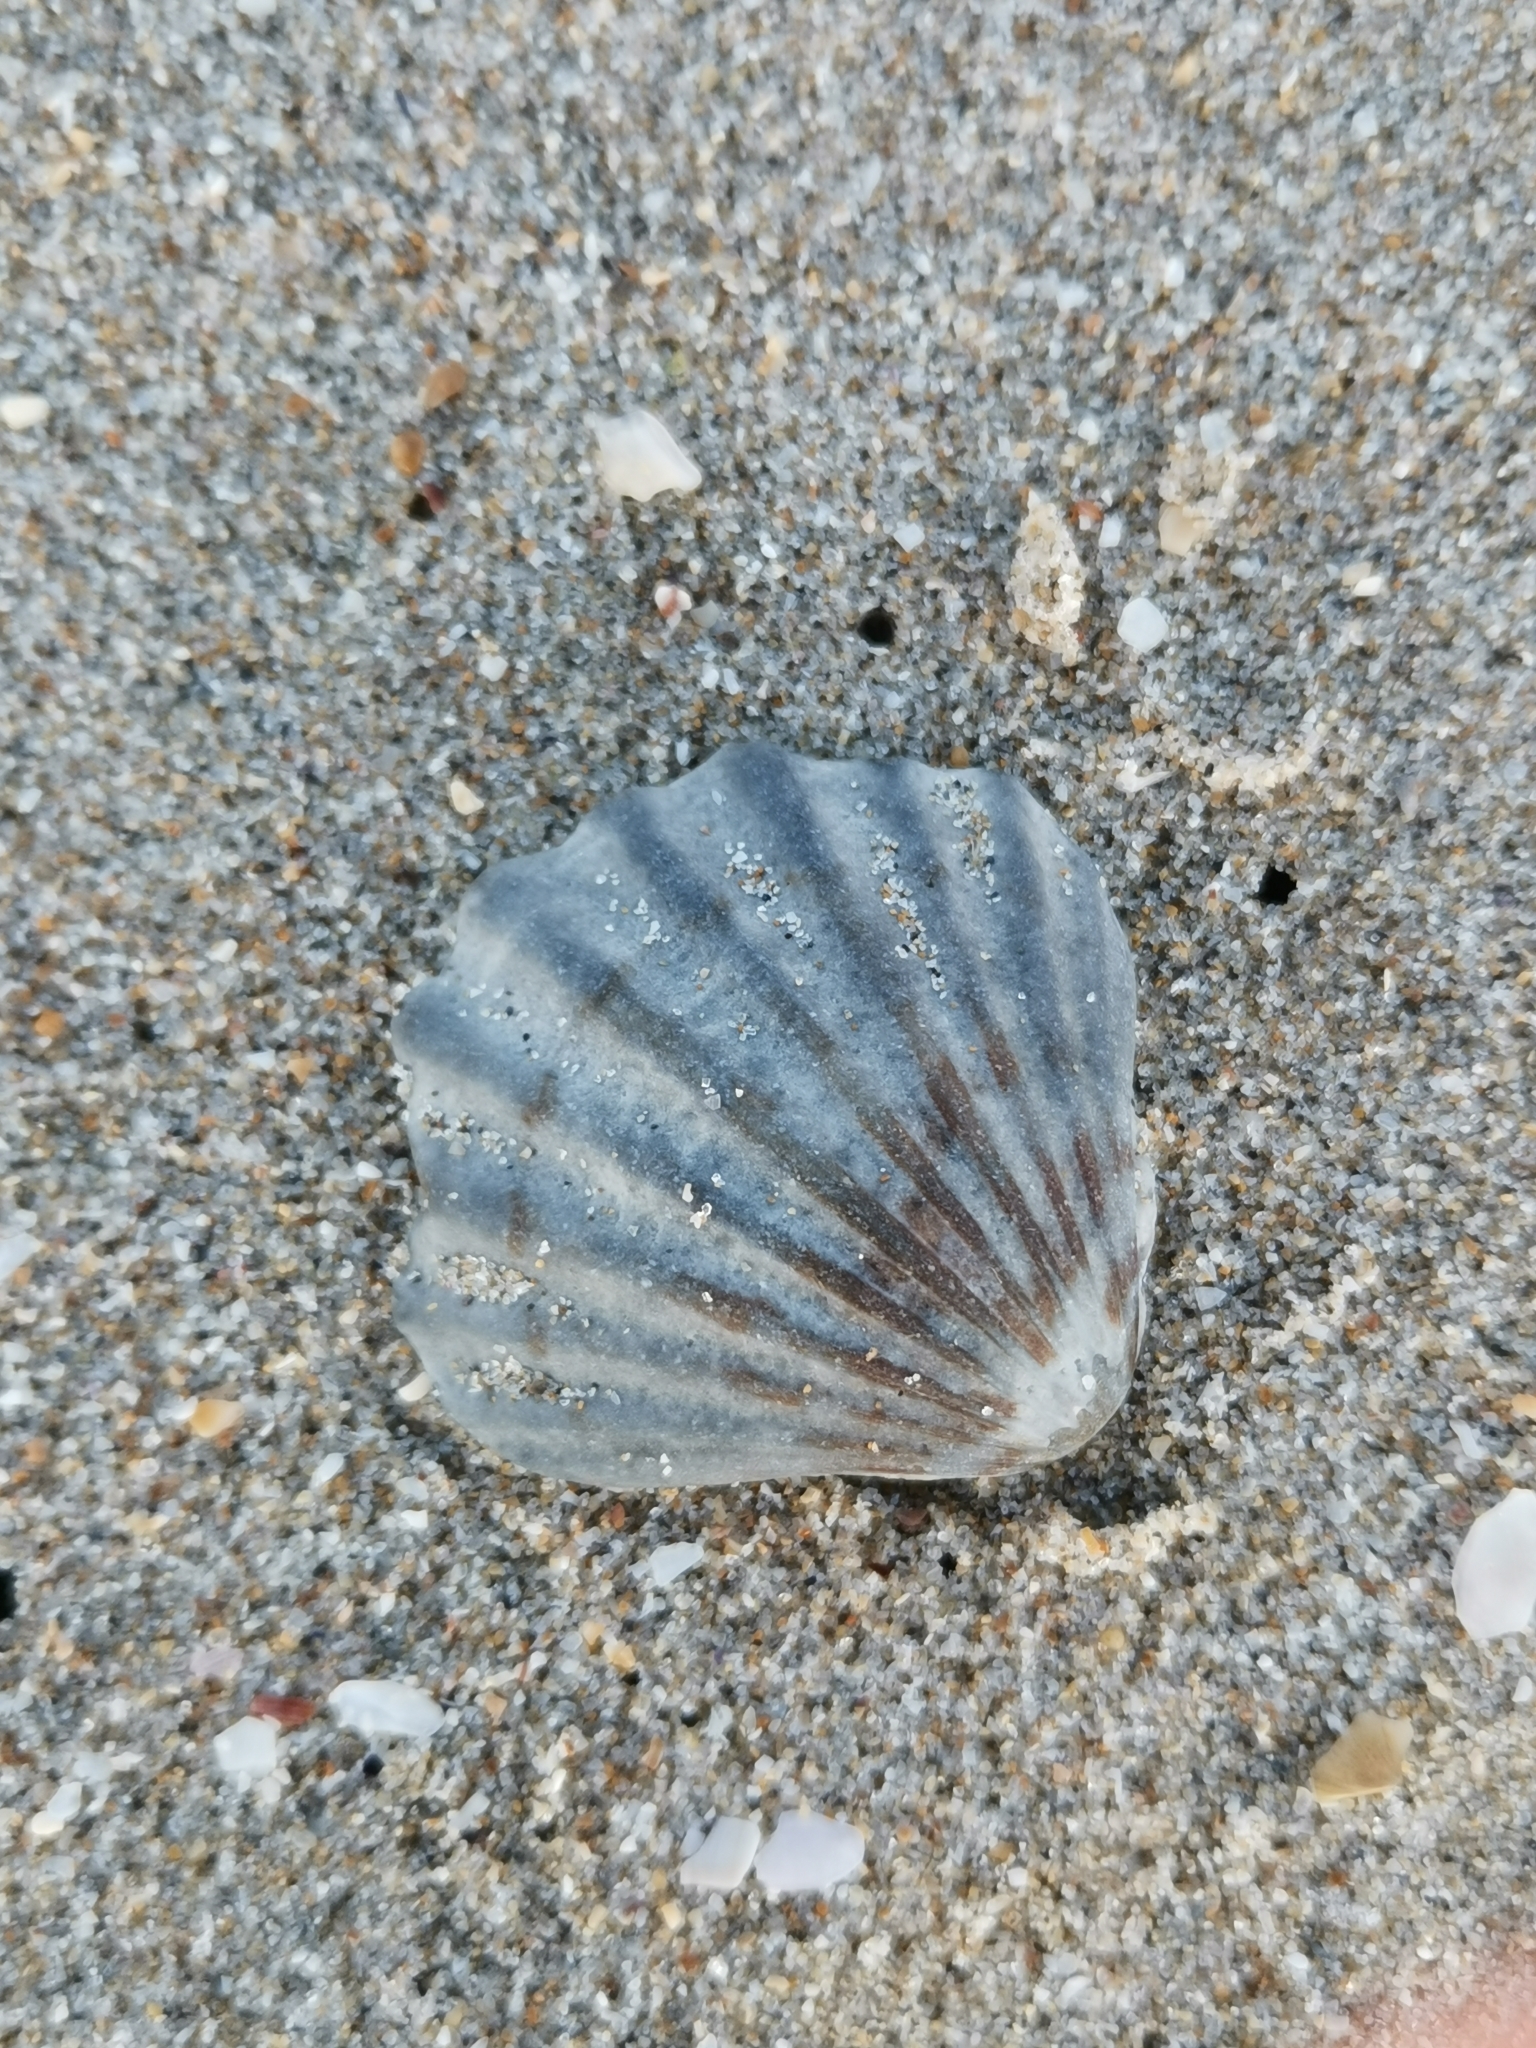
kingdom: Animalia
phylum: Mollusca
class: Bivalvia
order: Pectinida
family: Pectinidae
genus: Flexopecten
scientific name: Flexopecten glaber
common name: Smooth scallop
